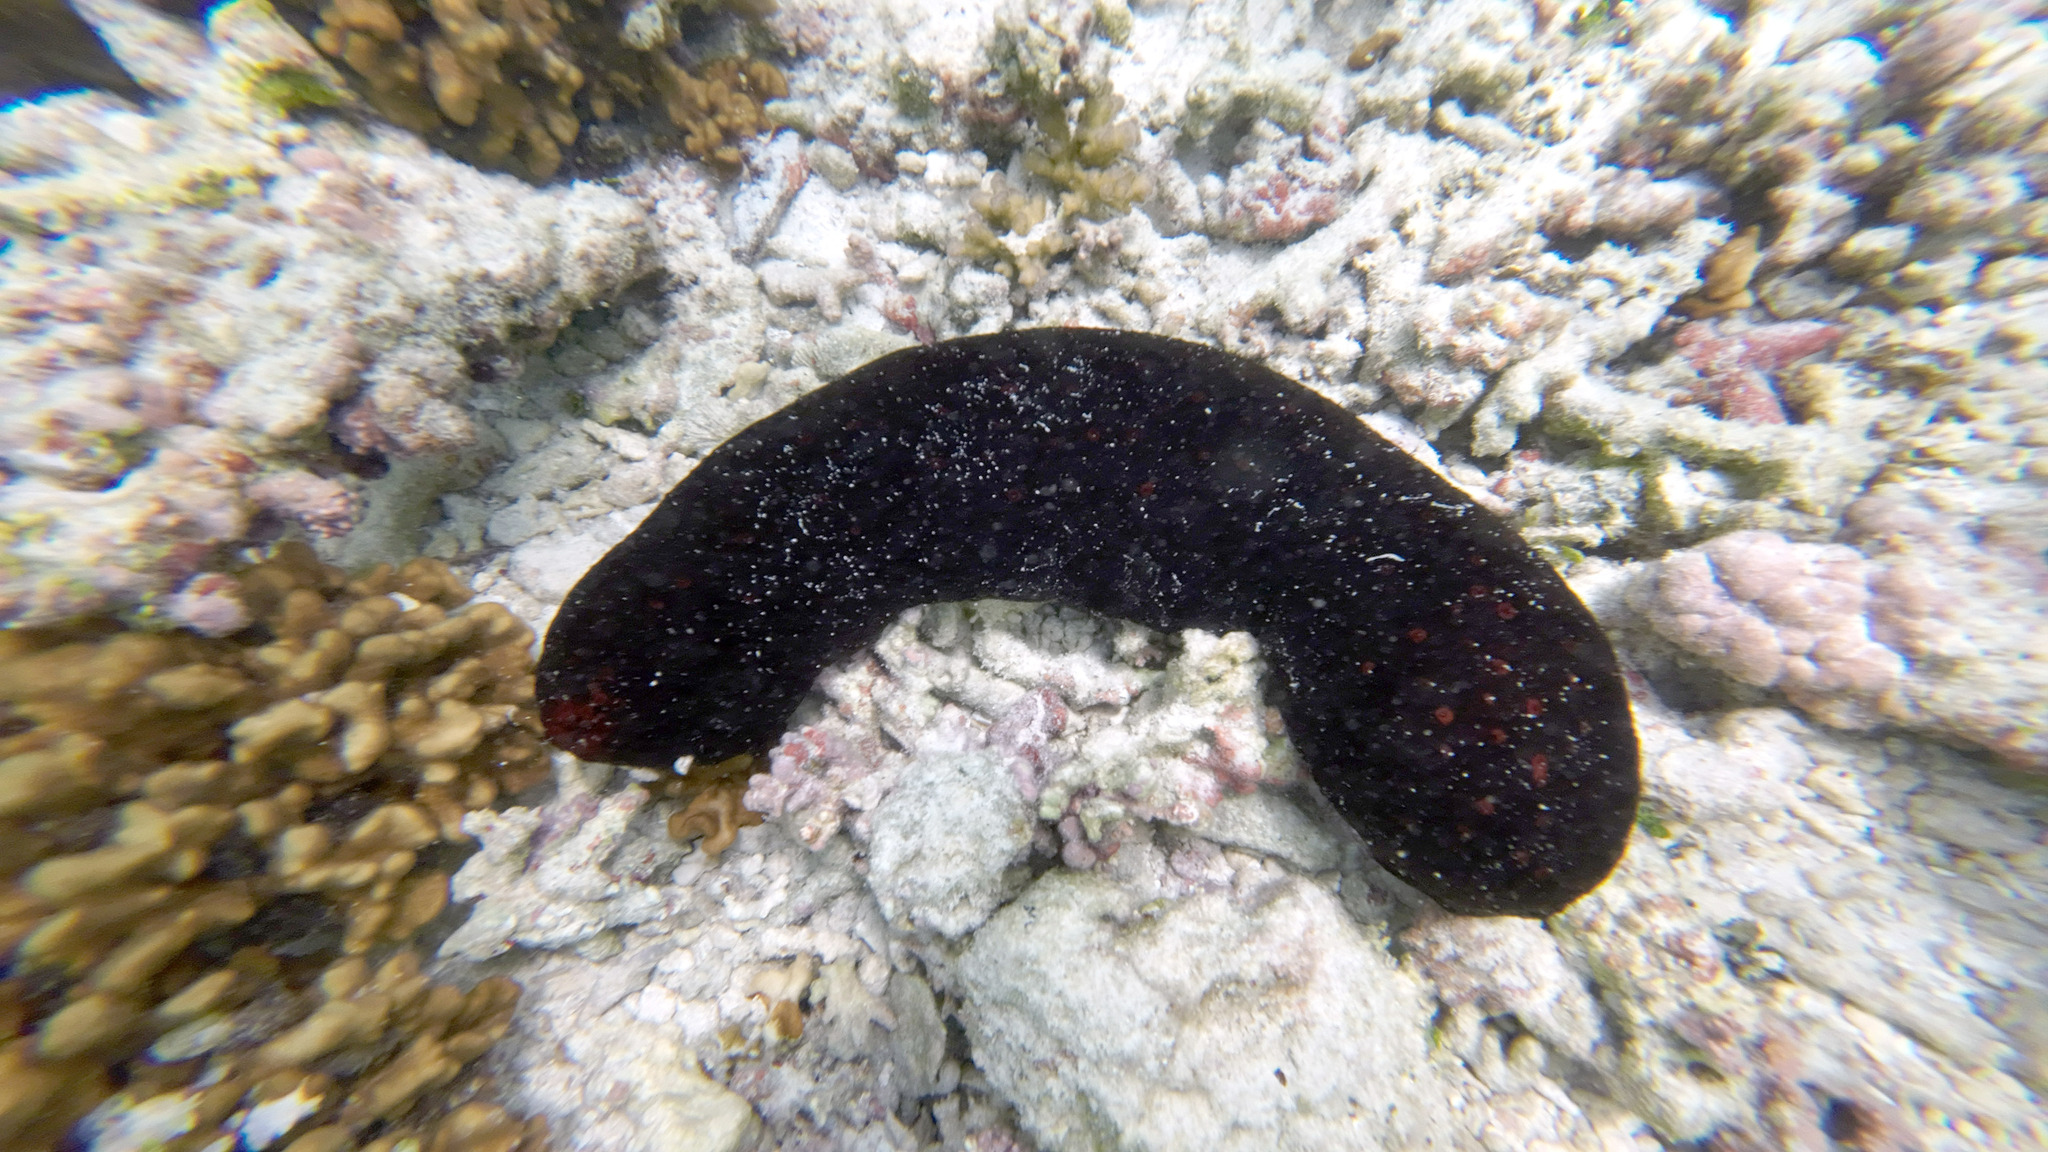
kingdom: Animalia
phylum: Echinodermata
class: Holothuroidea
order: Holothuriida
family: Holothuriidae
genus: Bohadschia
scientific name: Bohadschia atra
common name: Tigerfish
